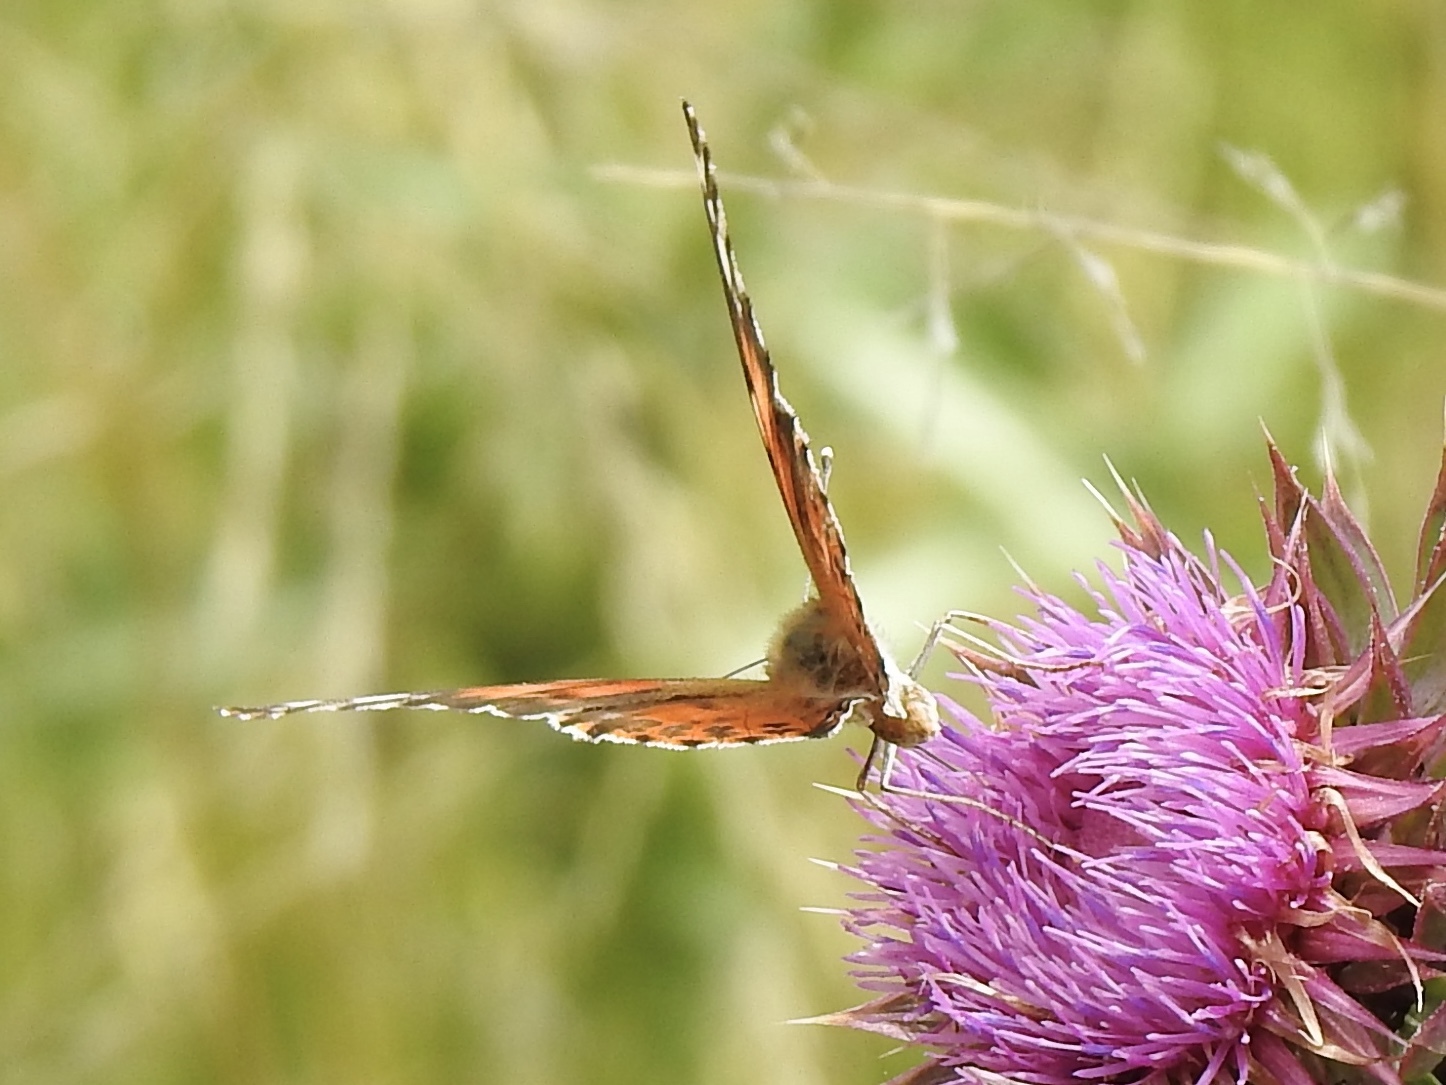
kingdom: Animalia
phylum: Arthropoda
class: Insecta
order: Lepidoptera
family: Nymphalidae
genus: Vanessa
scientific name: Vanessa cardui
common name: Painted lady
